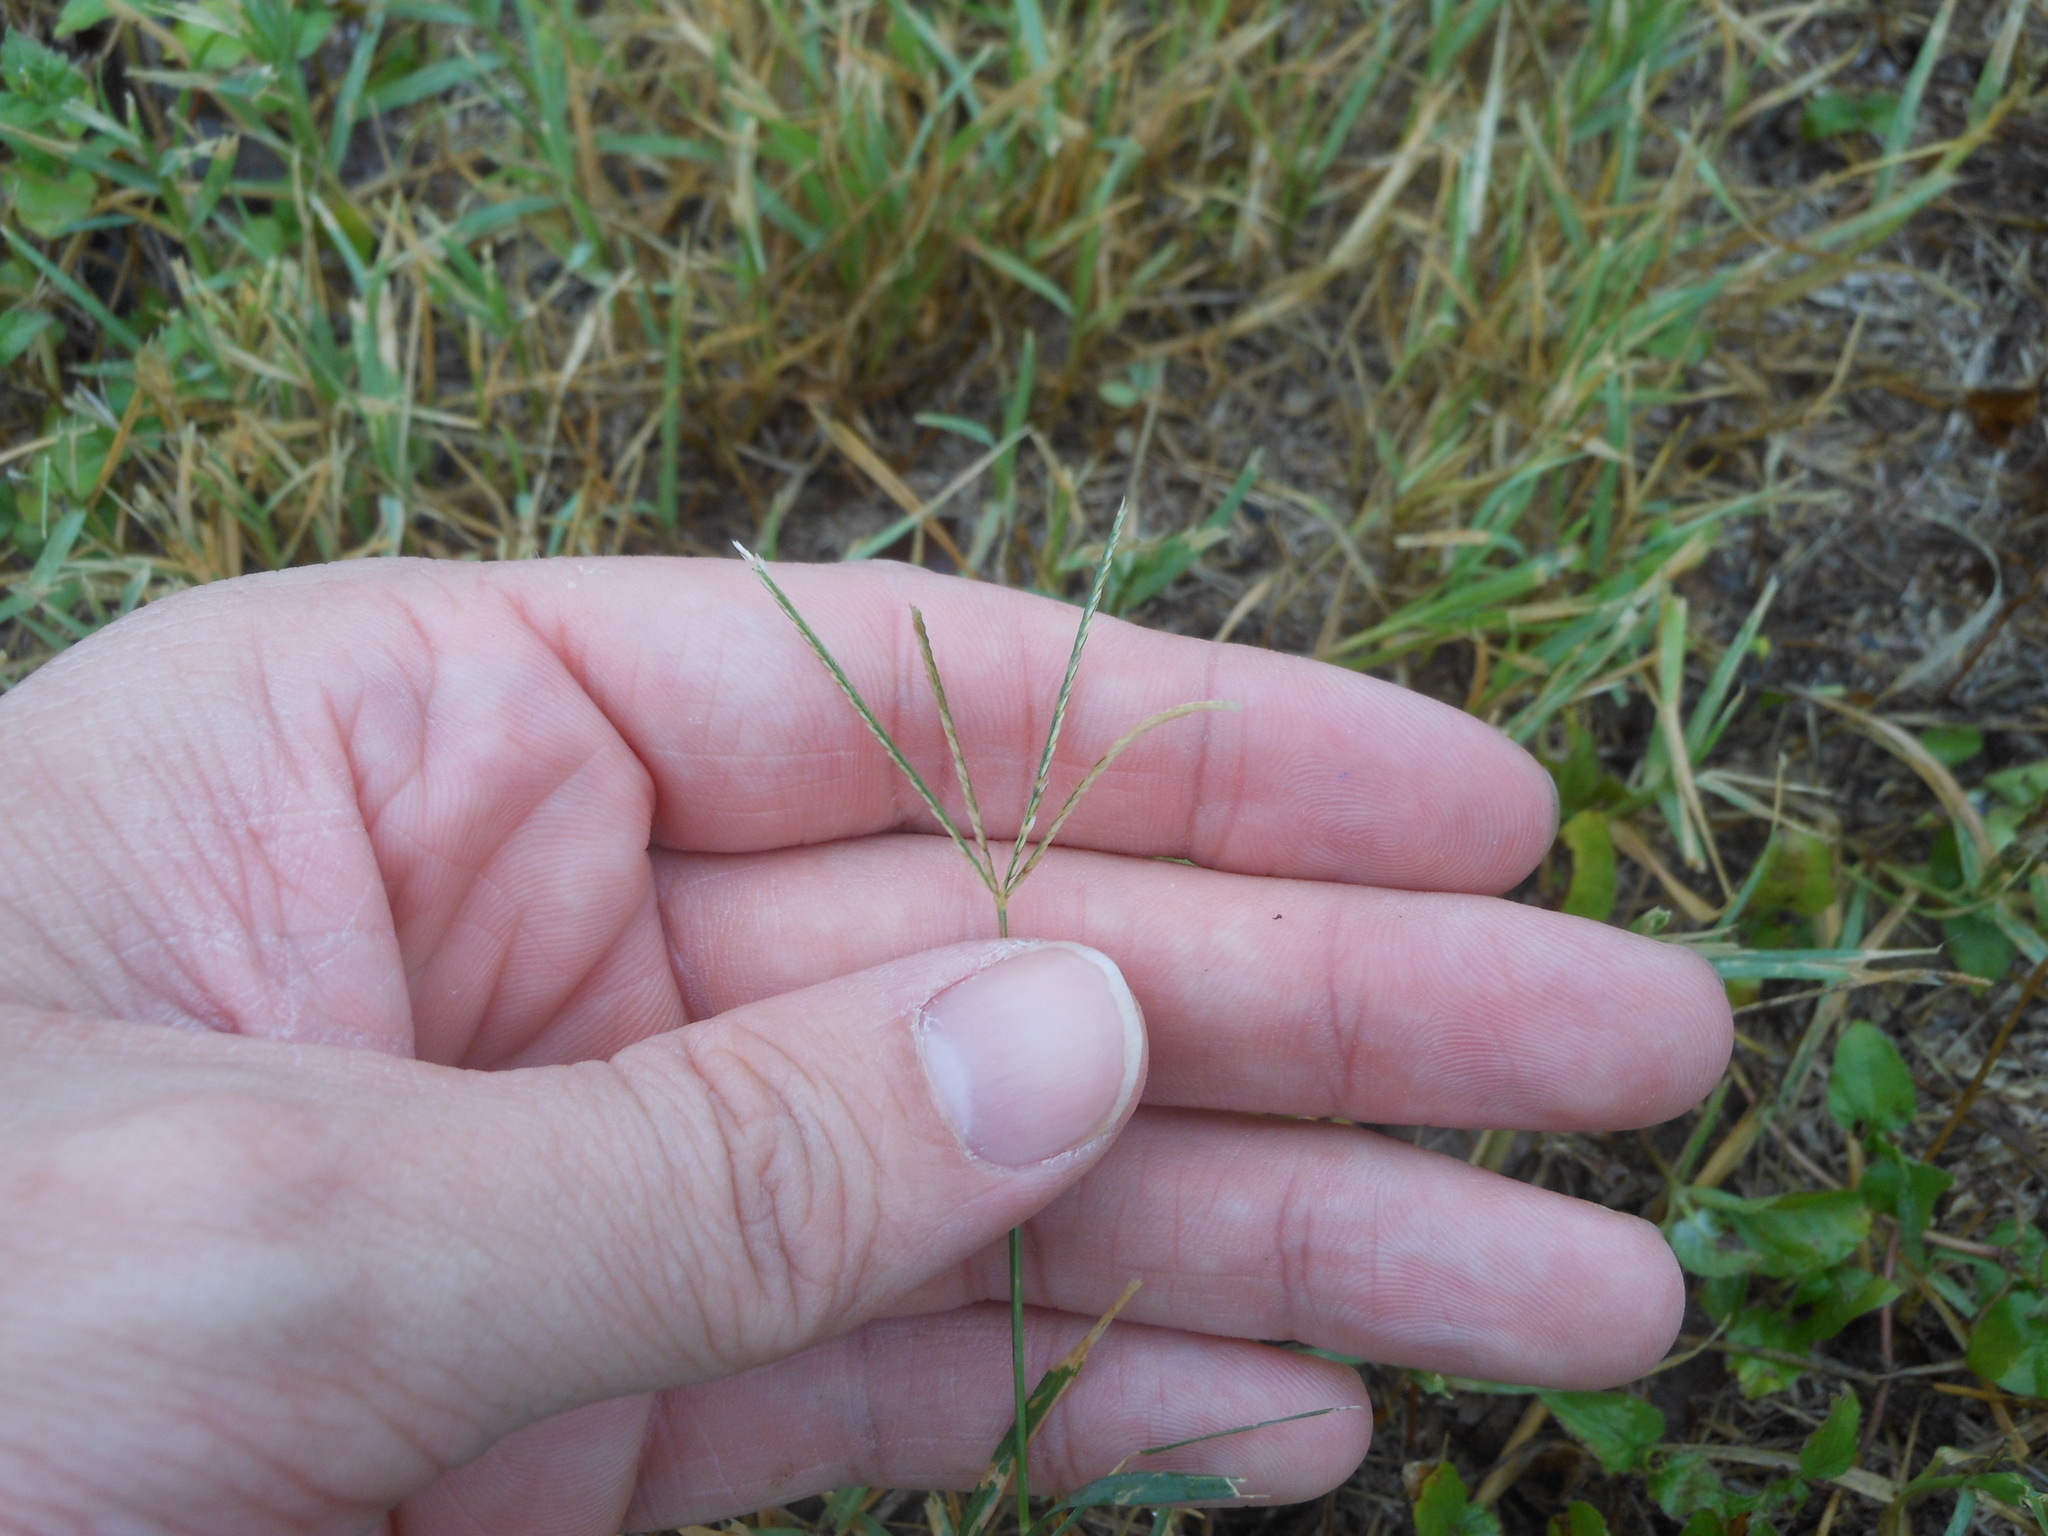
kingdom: Plantae
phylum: Tracheophyta
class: Liliopsida
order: Poales
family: Poaceae
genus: Cynodon
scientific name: Cynodon dactylon
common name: Bermuda grass
